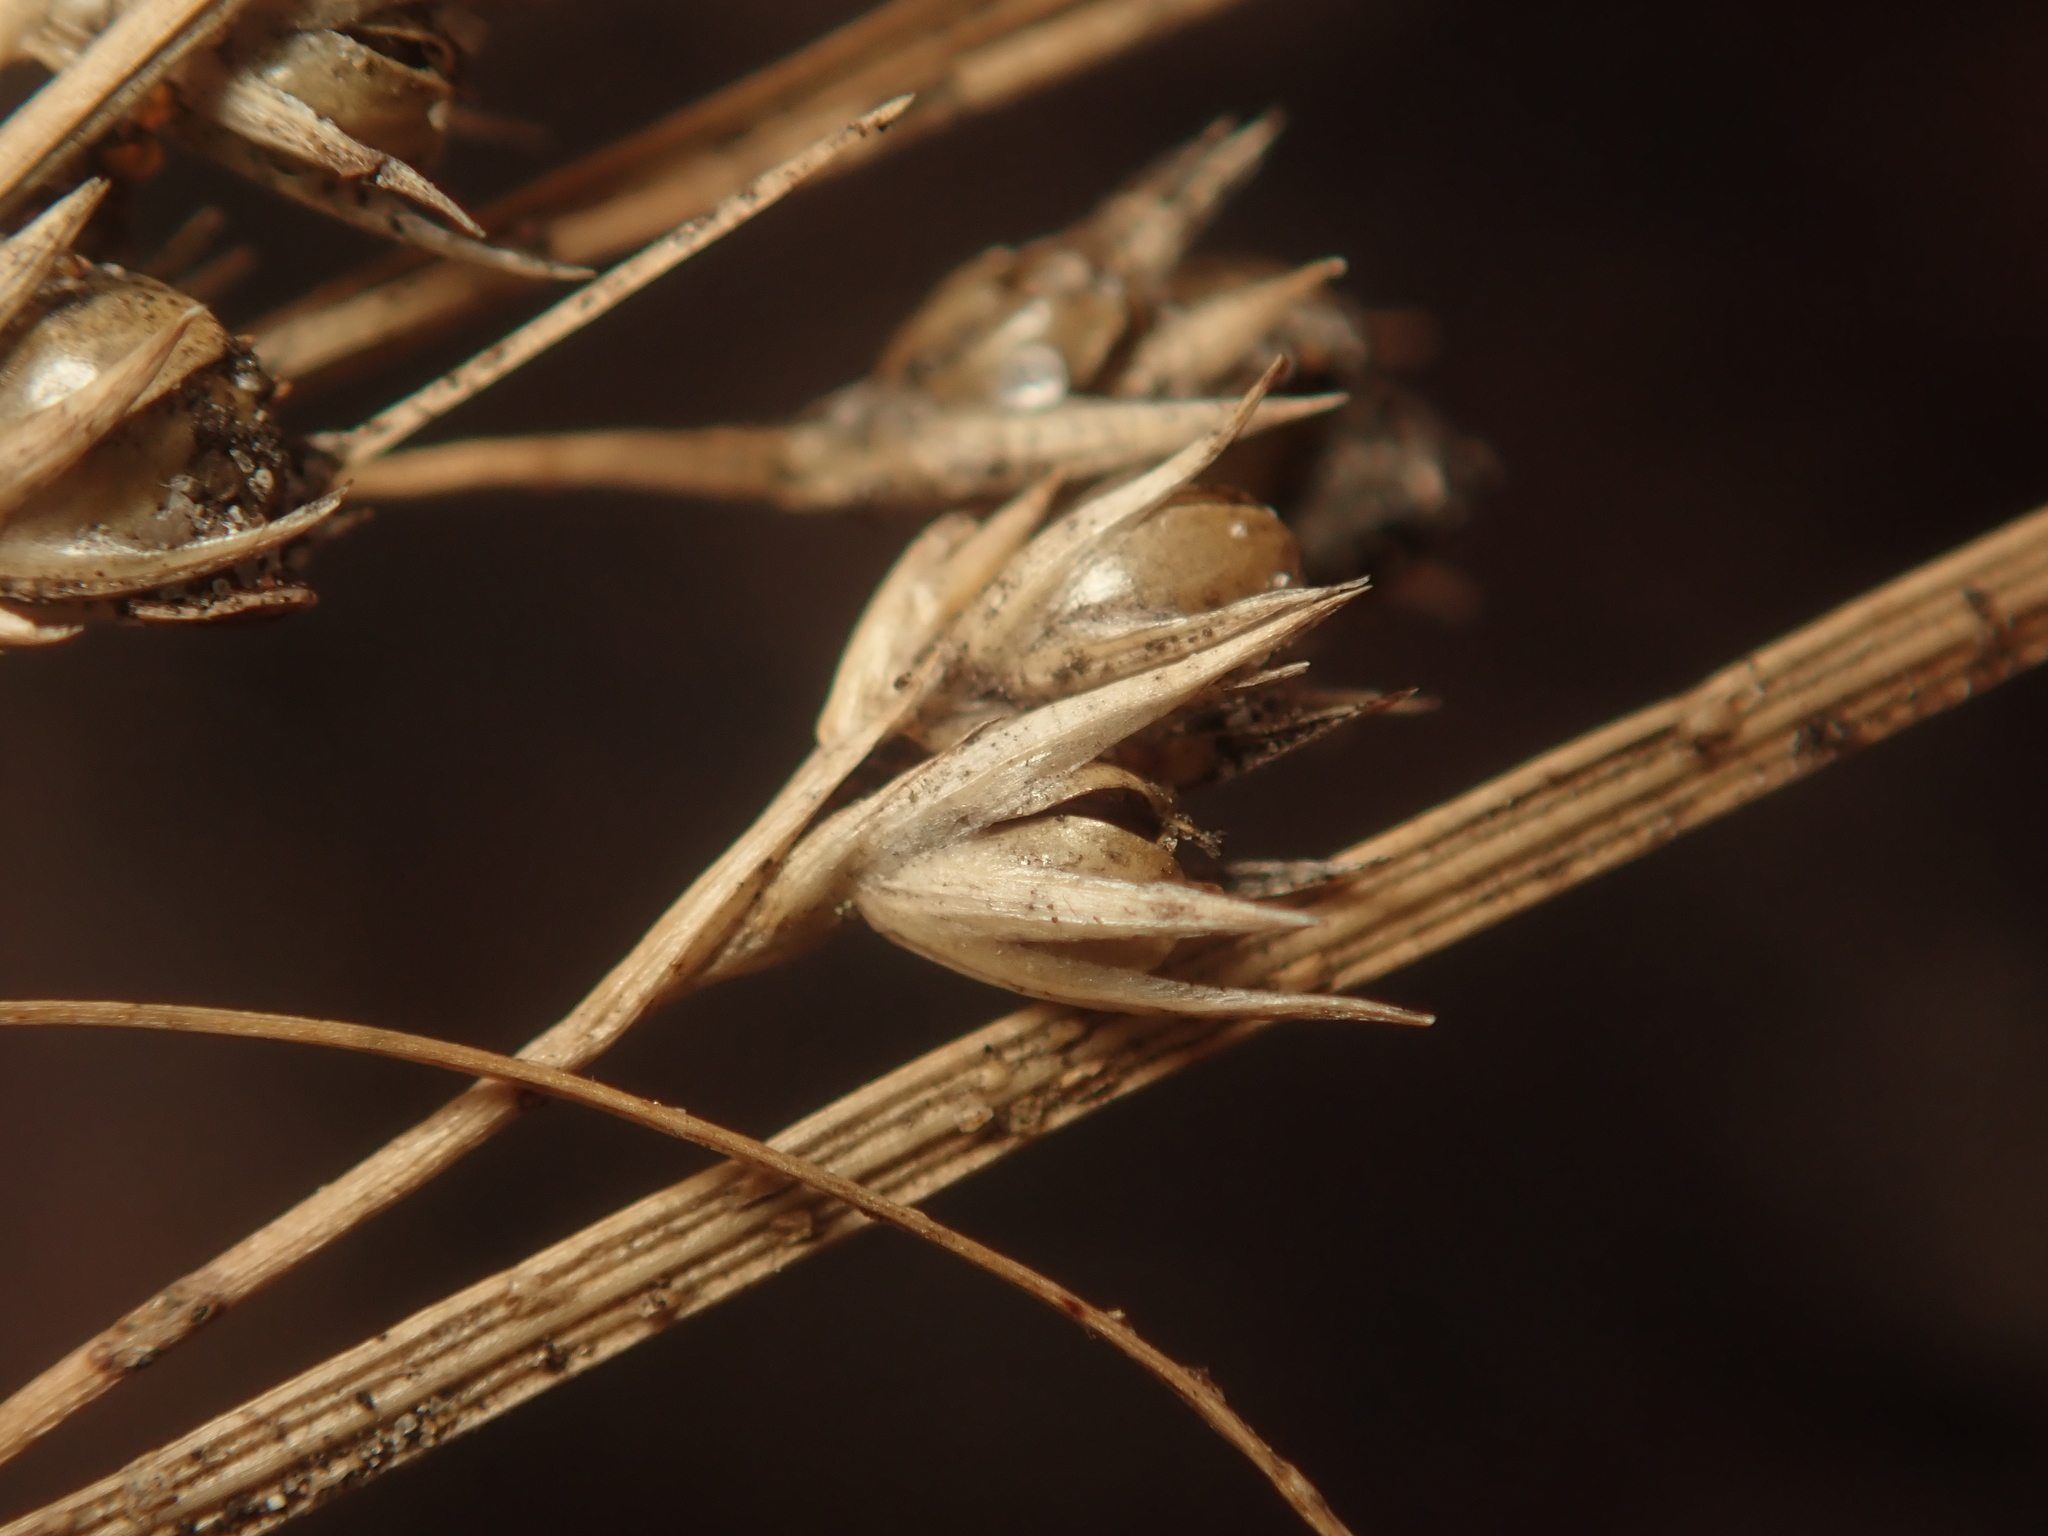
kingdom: Plantae
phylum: Tracheophyta
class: Liliopsida
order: Poales
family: Juncaceae
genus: Juncus
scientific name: Juncus tenuis
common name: Slender rush
